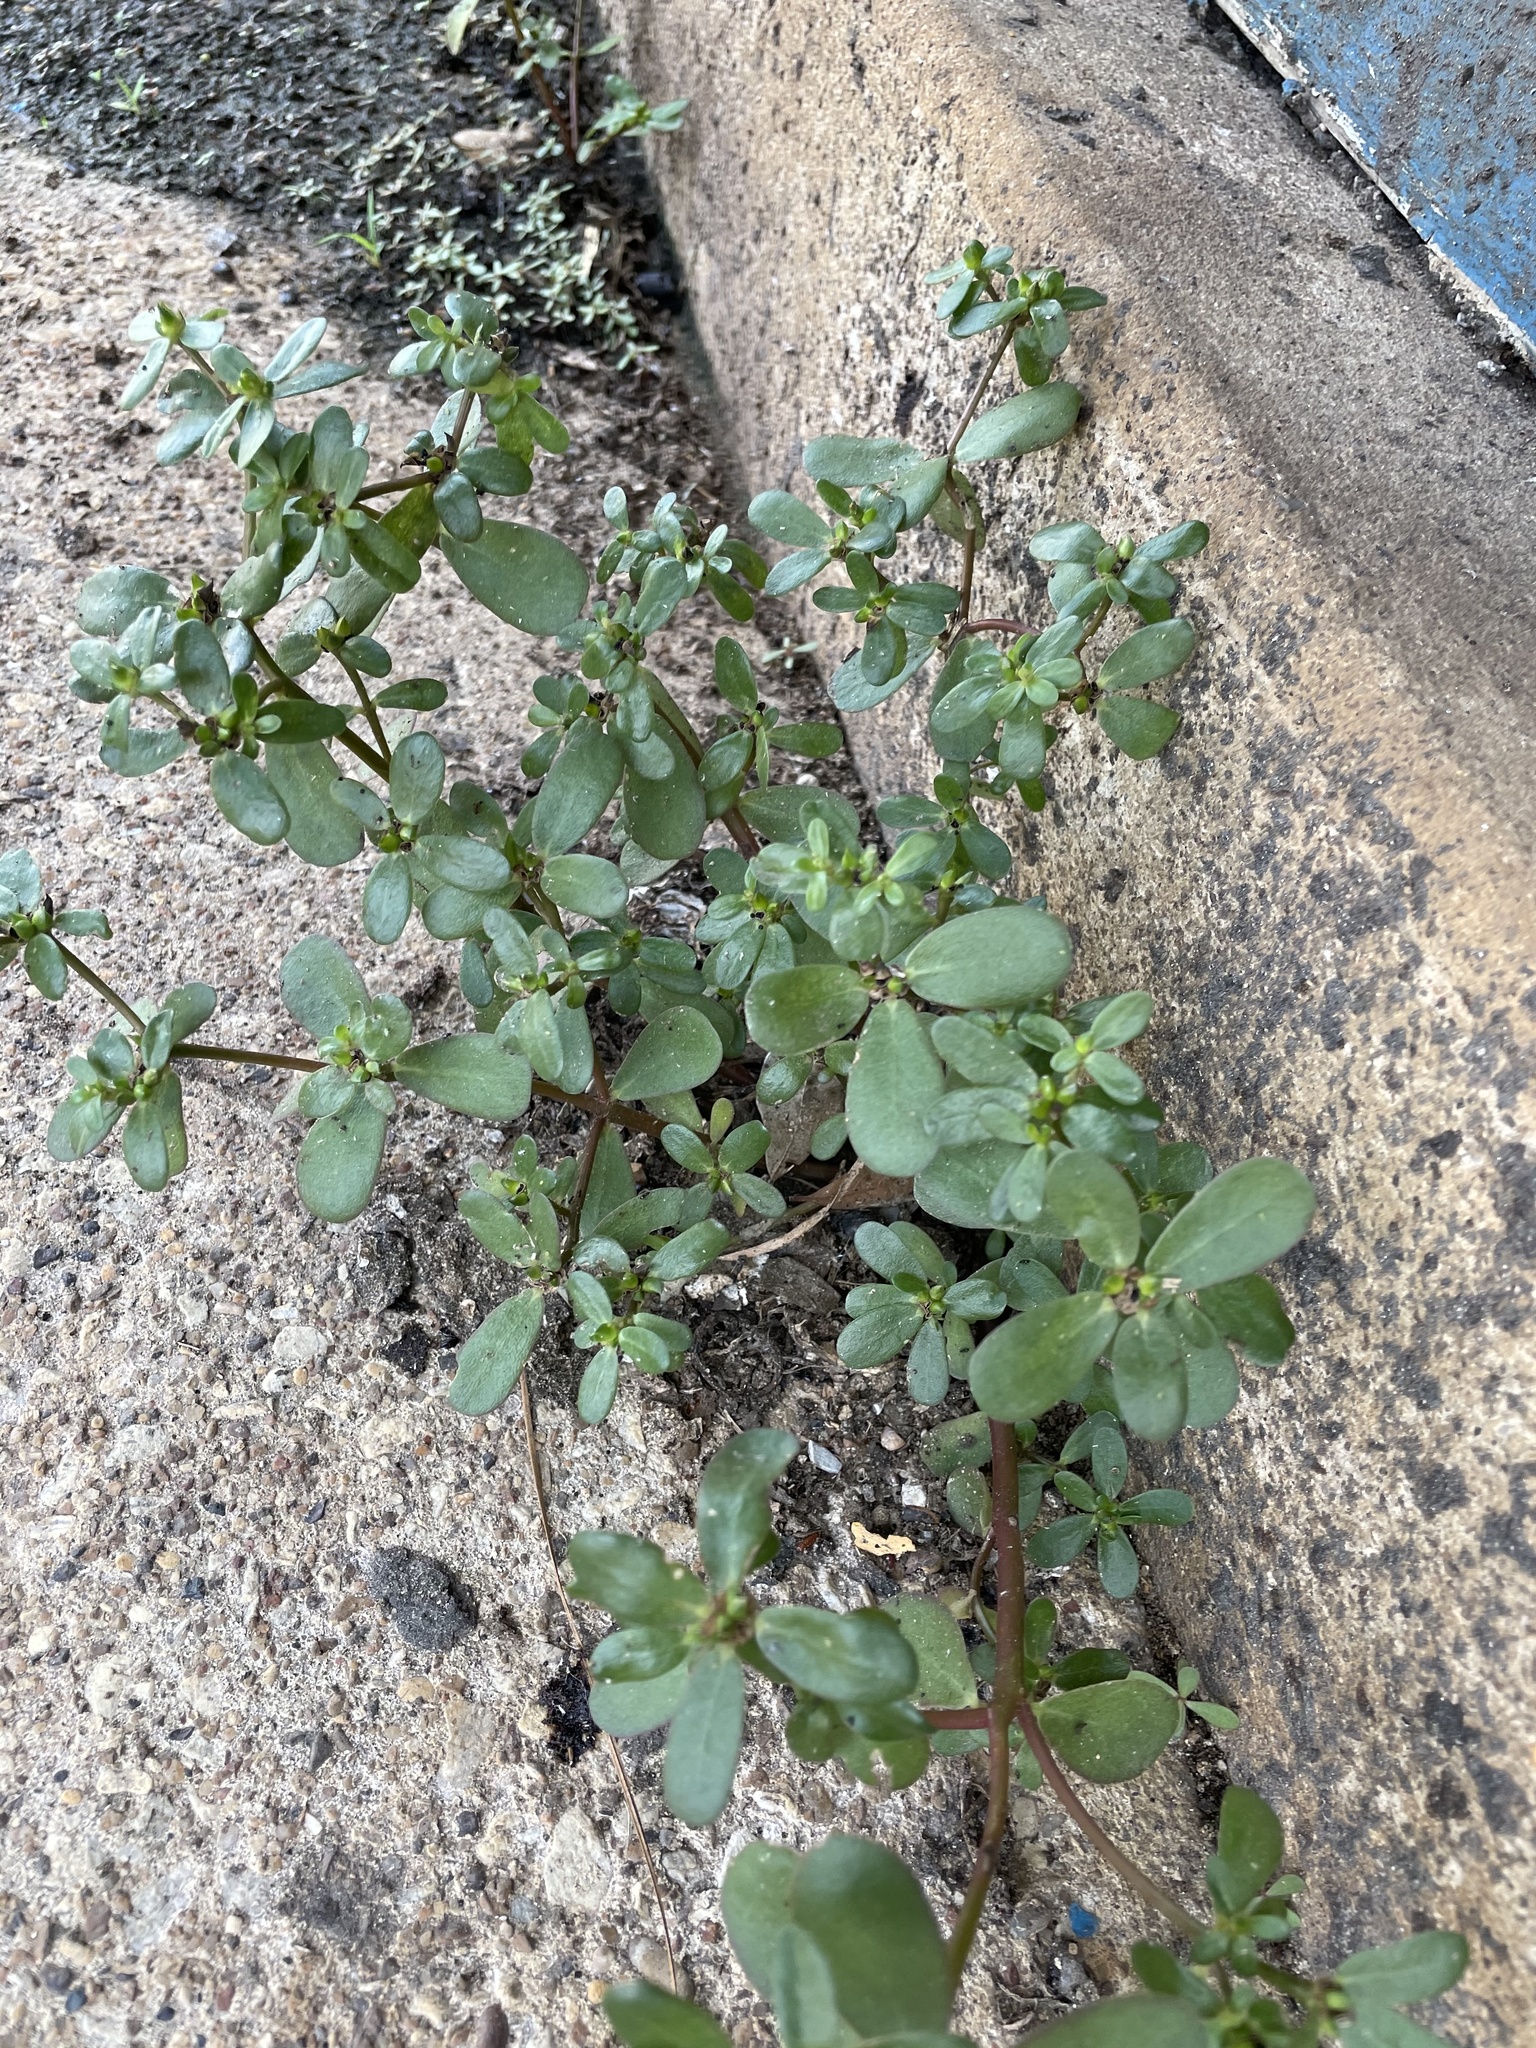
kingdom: Plantae
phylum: Tracheophyta
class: Magnoliopsida
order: Caryophyllales
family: Portulacaceae
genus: Portulaca
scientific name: Portulaca oleracea
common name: Common purslane
